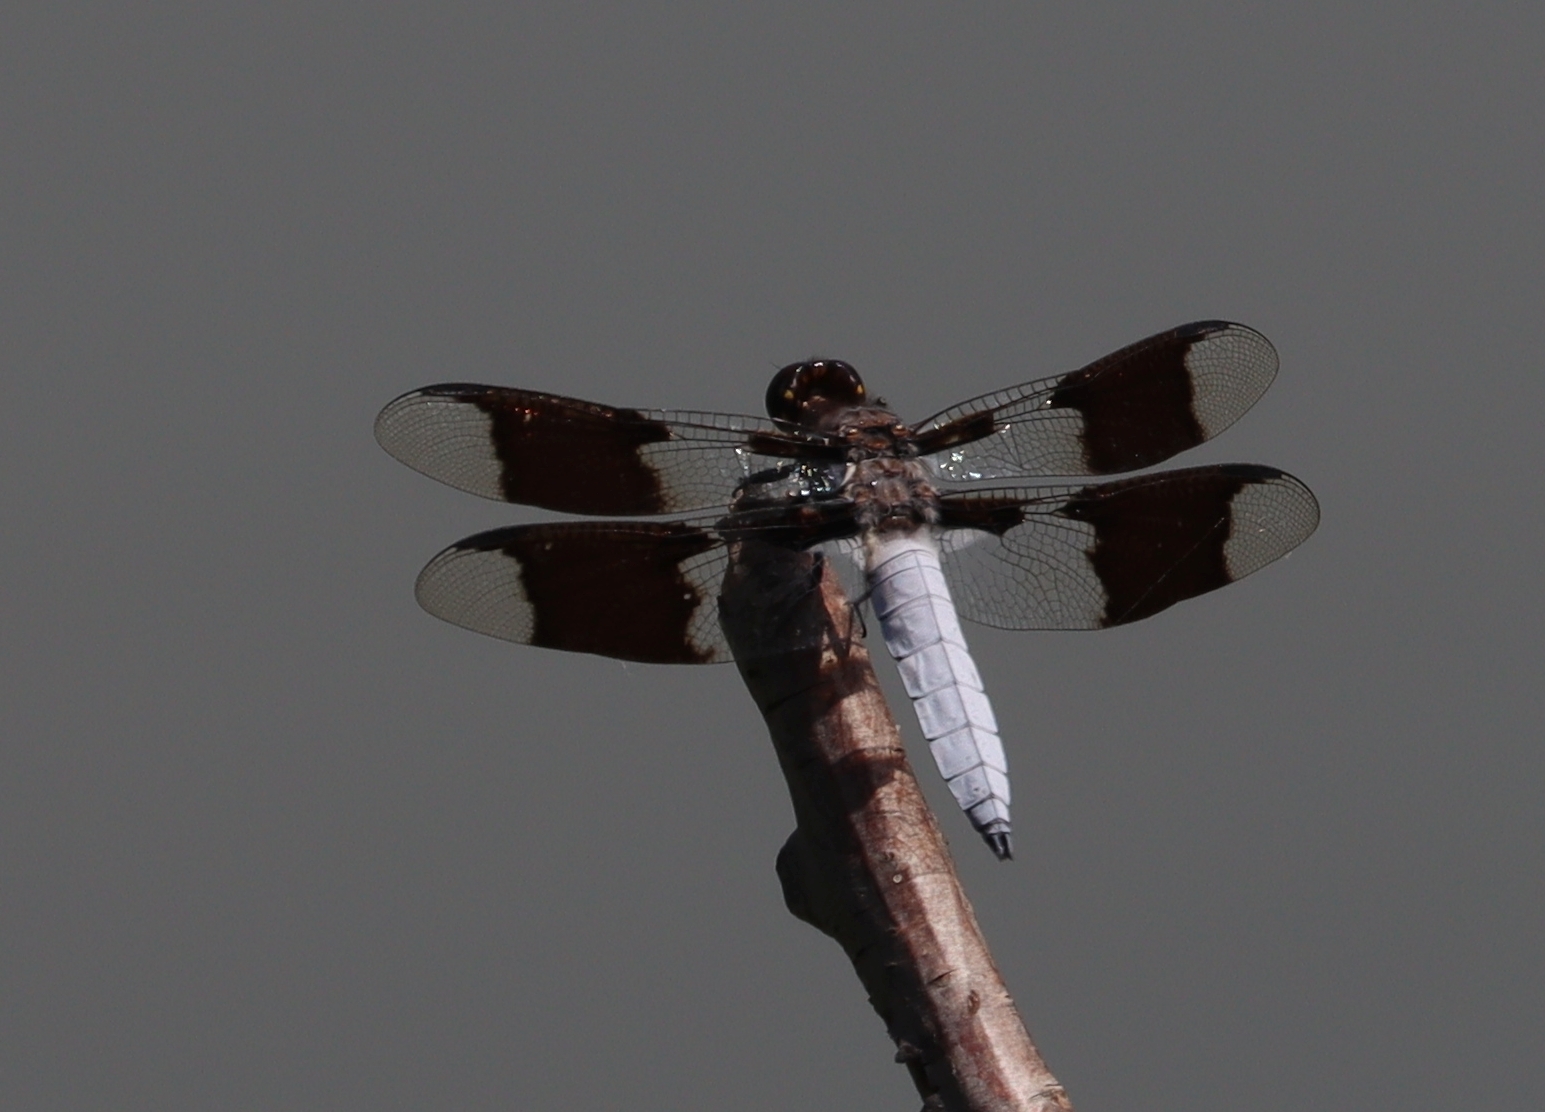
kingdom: Animalia
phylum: Arthropoda
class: Insecta
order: Odonata
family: Libellulidae
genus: Plathemis
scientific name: Plathemis lydia
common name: Common whitetail
